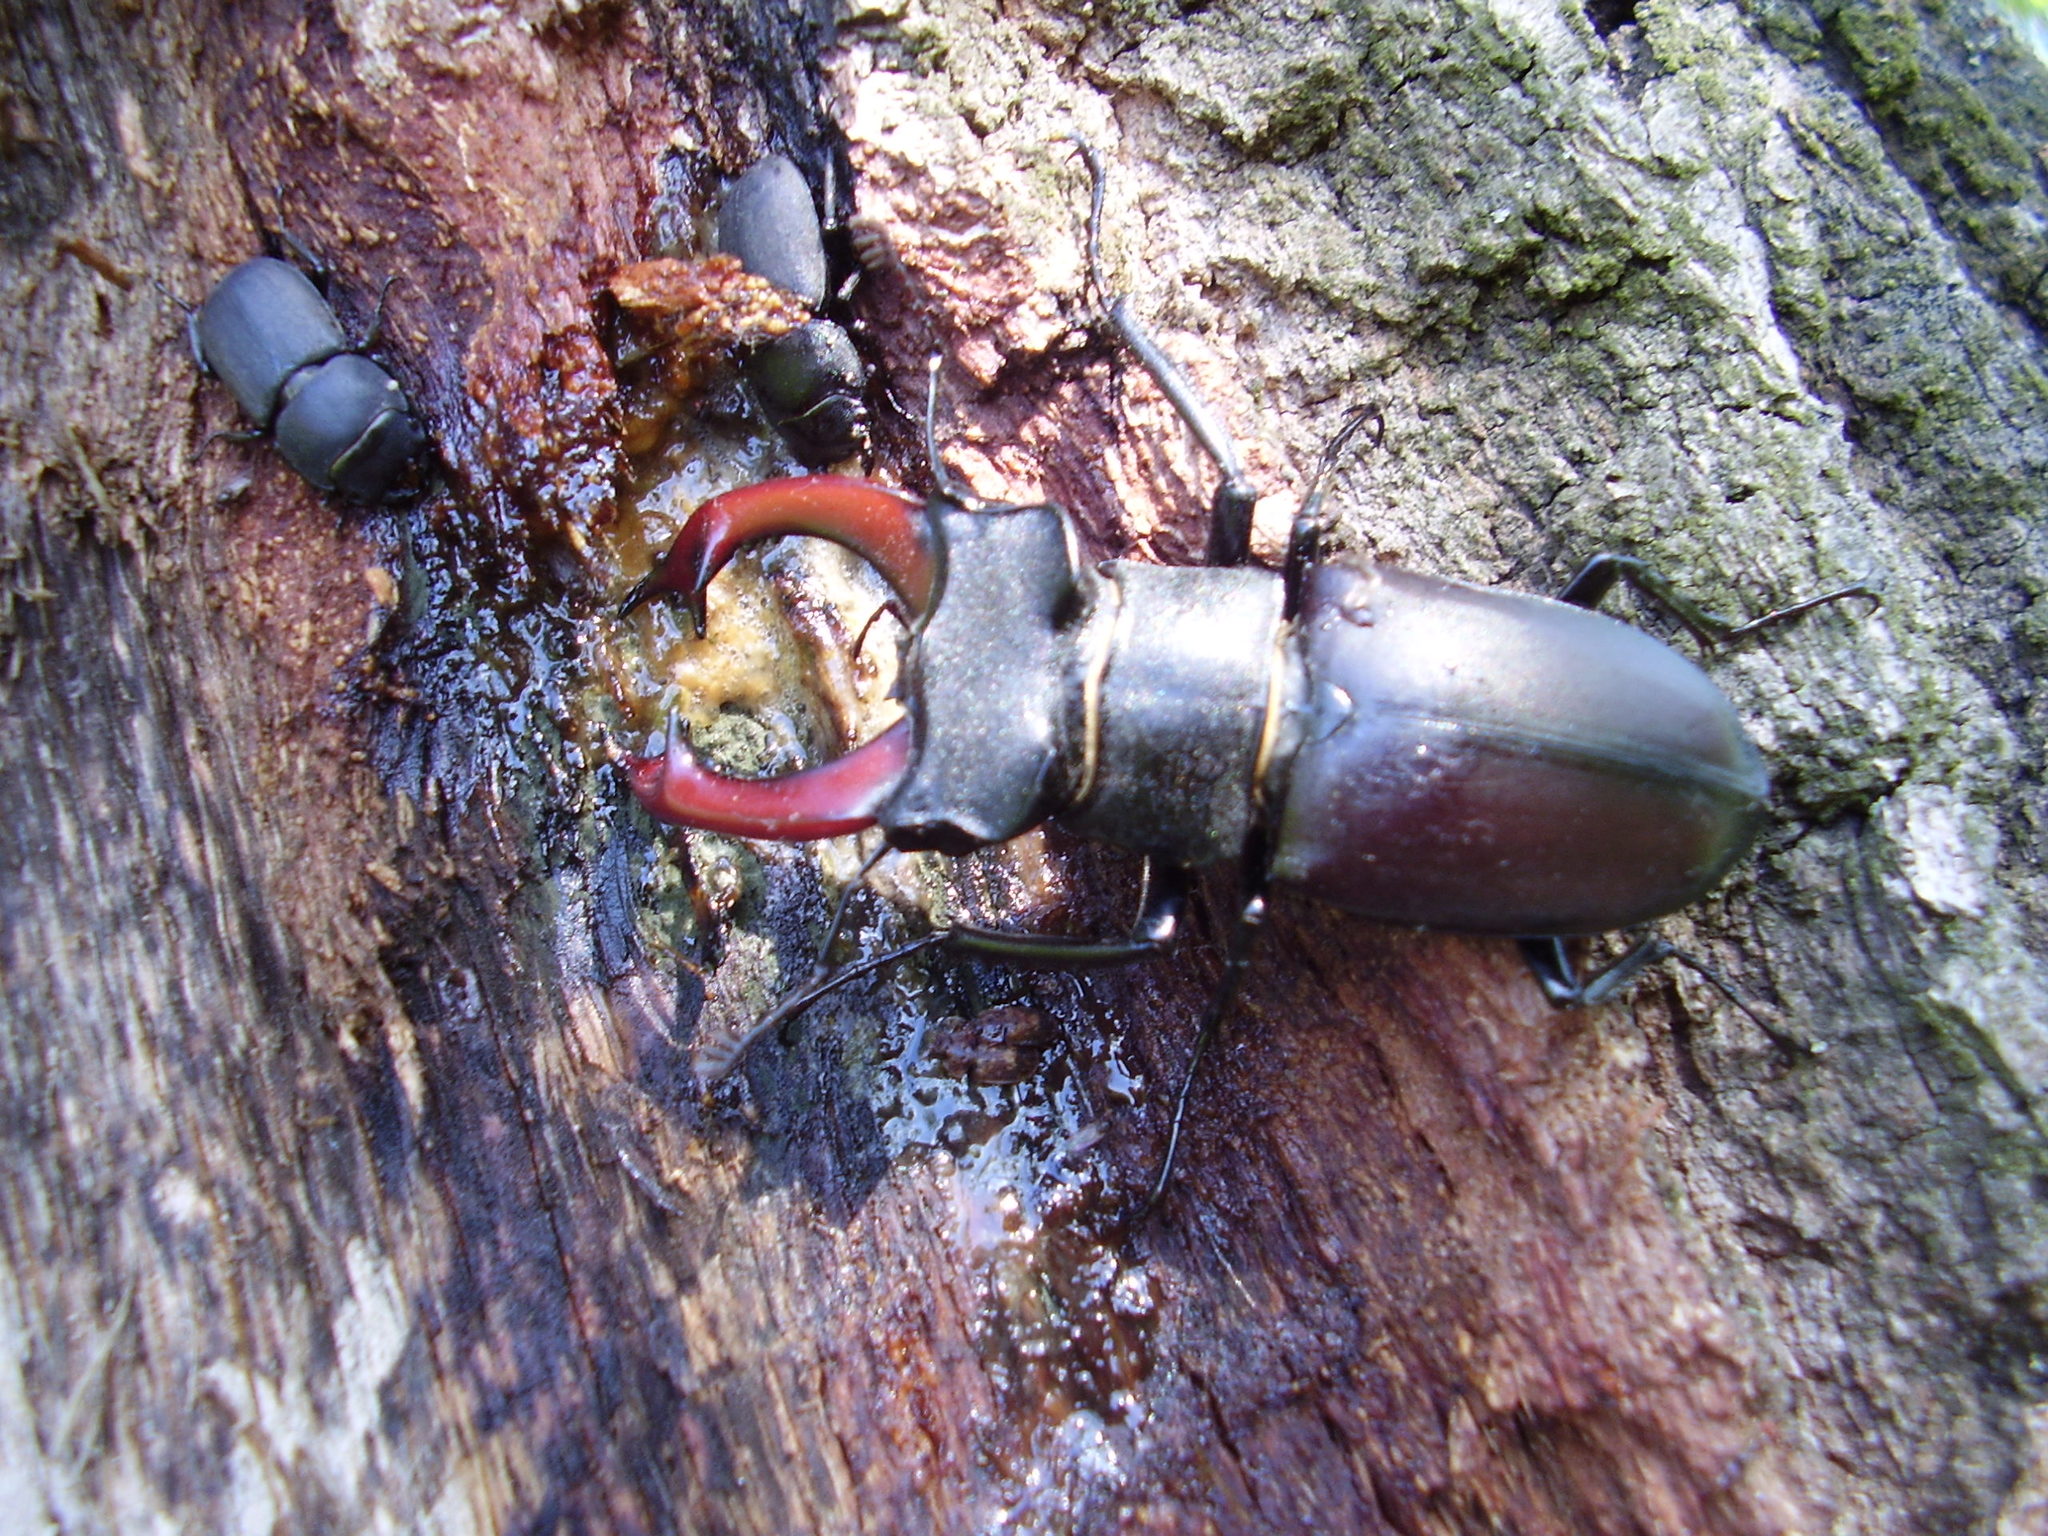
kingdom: Animalia
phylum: Arthropoda
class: Insecta
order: Coleoptera
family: Lucanidae
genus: Lucanus
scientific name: Lucanus cervus
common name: Stag beetle
